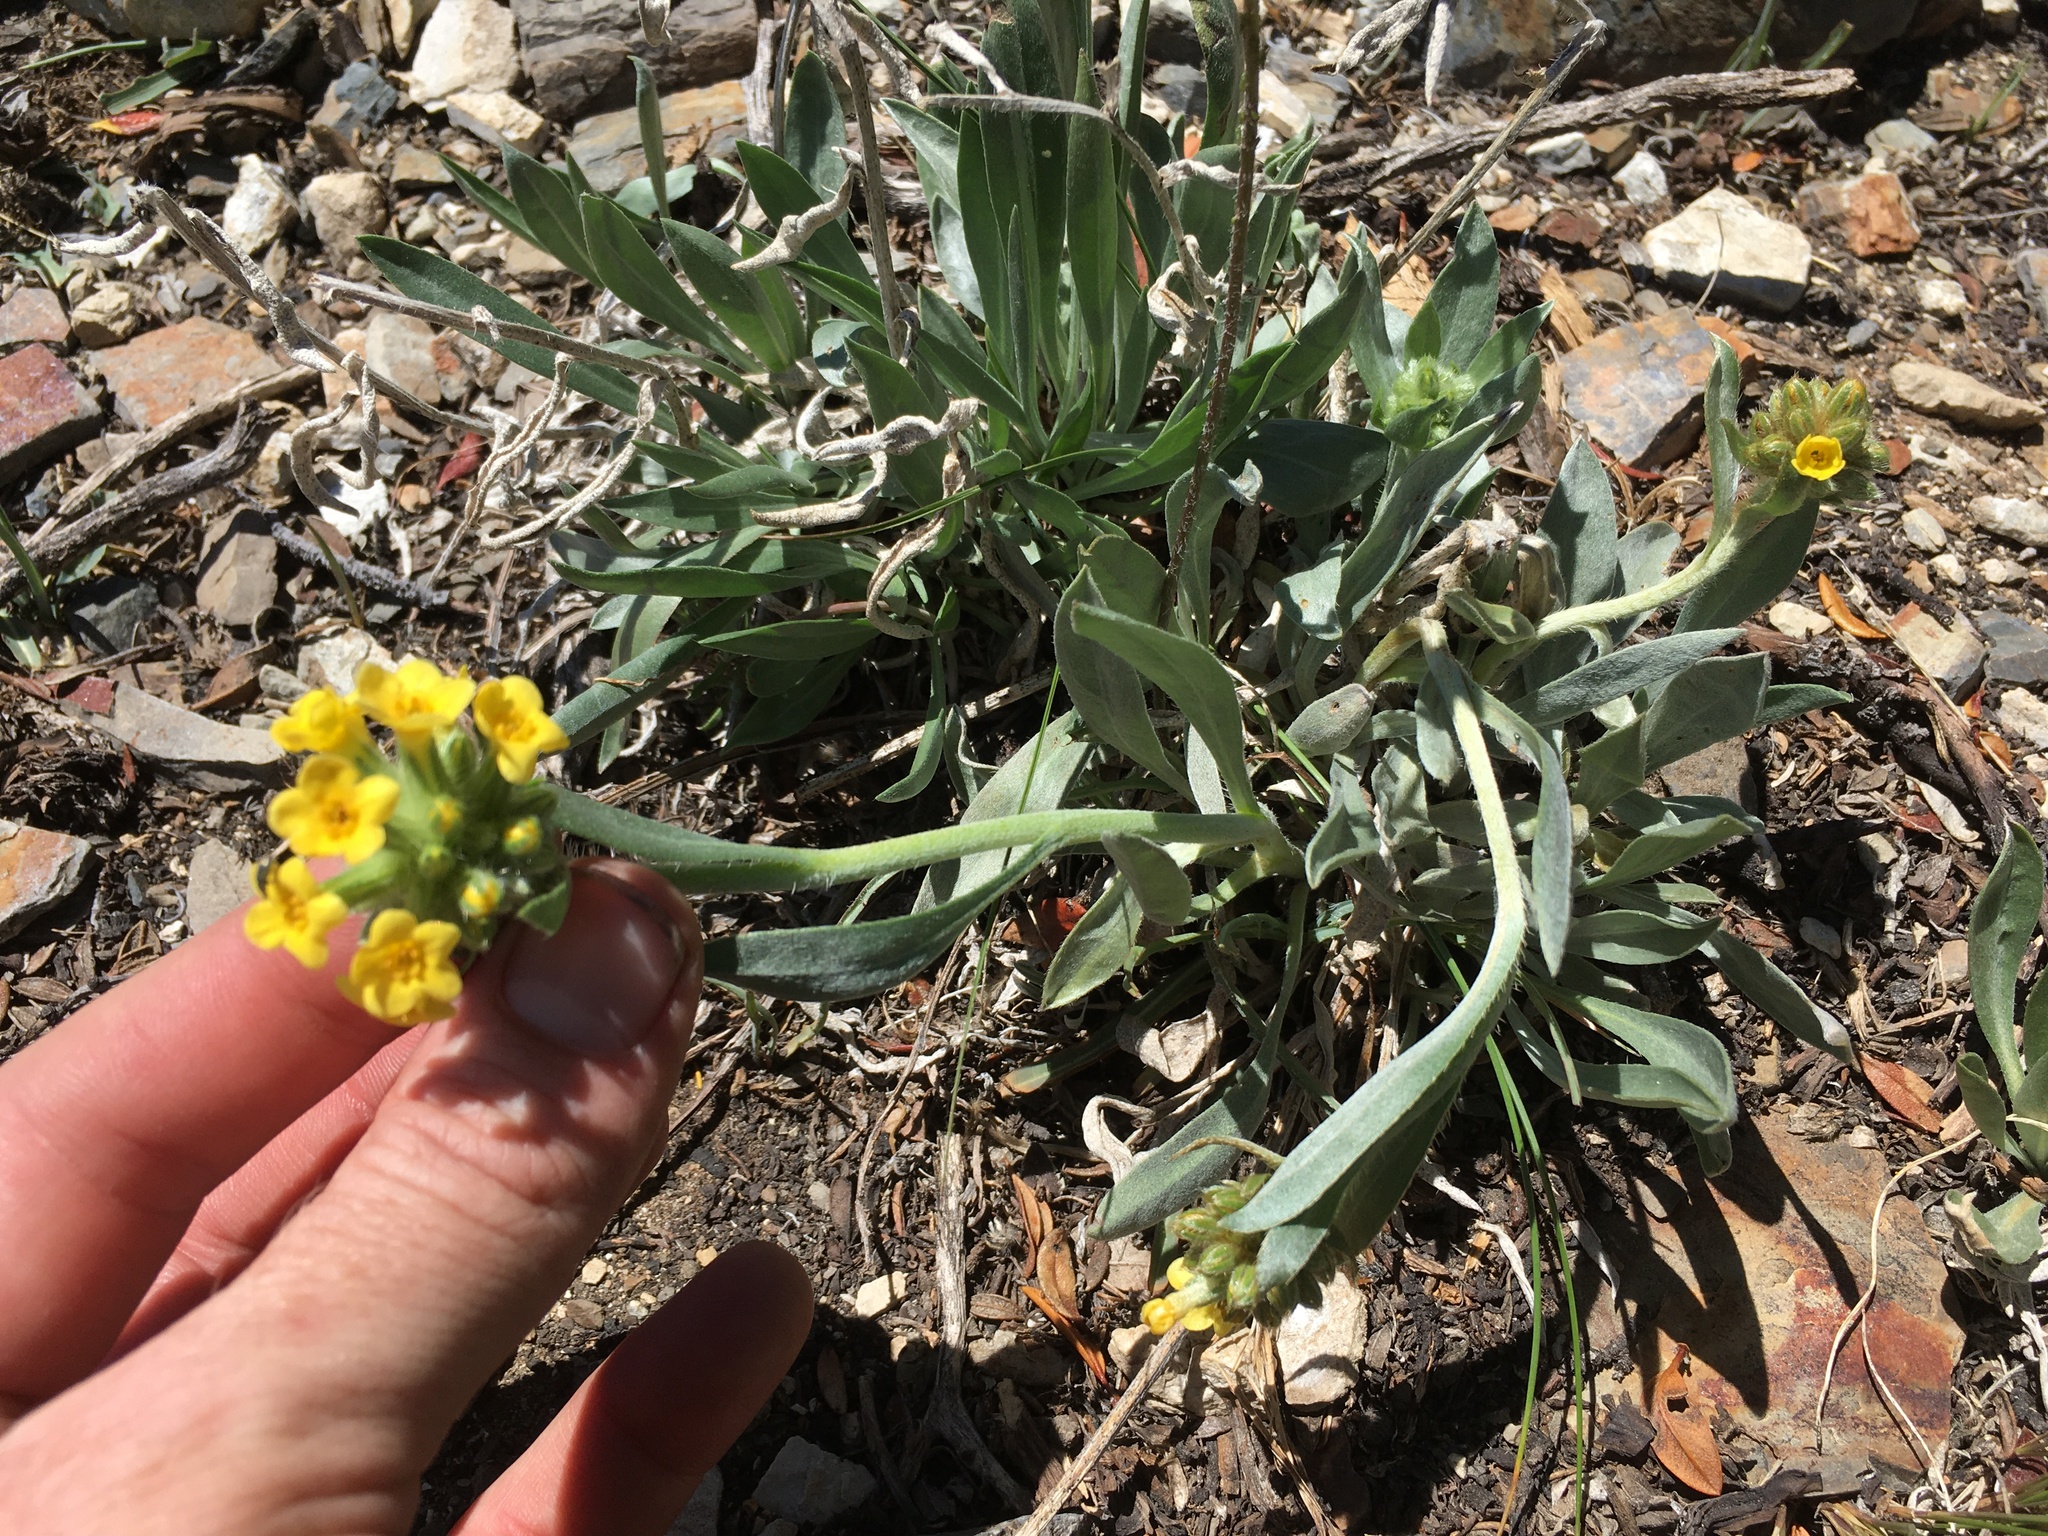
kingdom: Plantae
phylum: Tracheophyta
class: Magnoliopsida
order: Boraginales
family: Boraginaceae
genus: Oreocarya
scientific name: Oreocarya confertiflora
